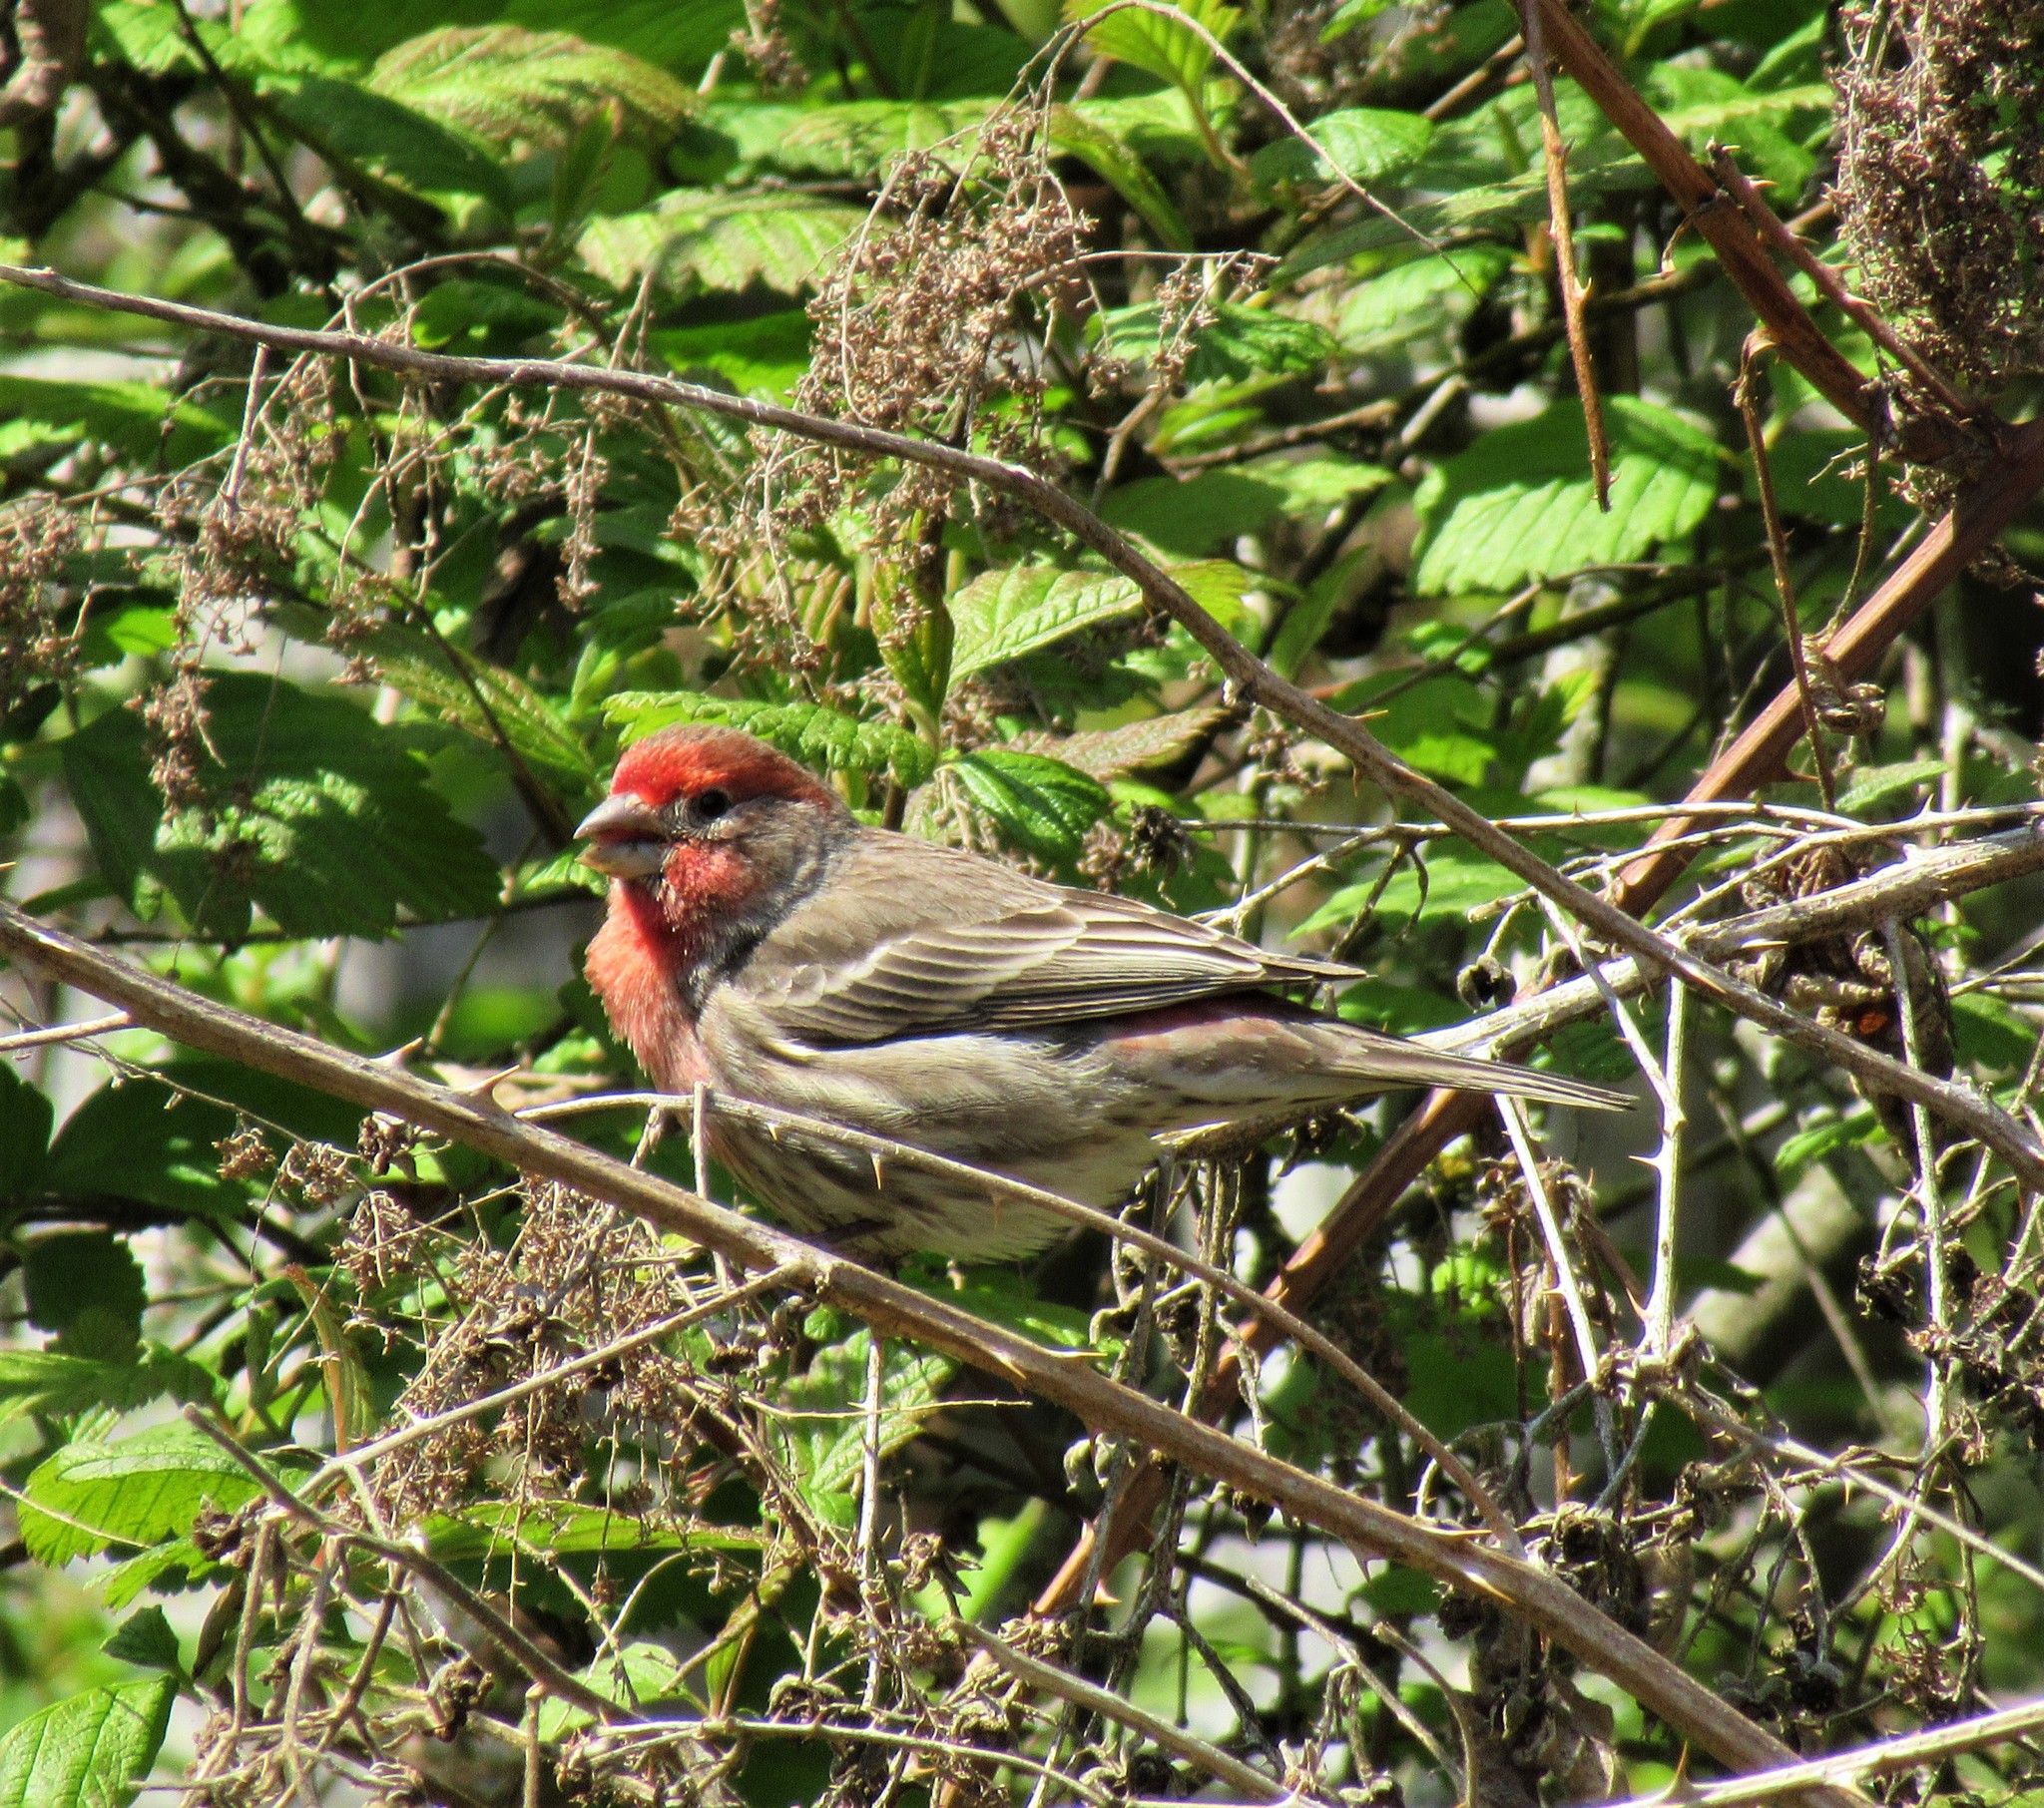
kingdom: Animalia
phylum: Chordata
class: Aves
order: Passeriformes
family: Fringillidae
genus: Haemorhous
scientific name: Haemorhous mexicanus
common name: House finch
